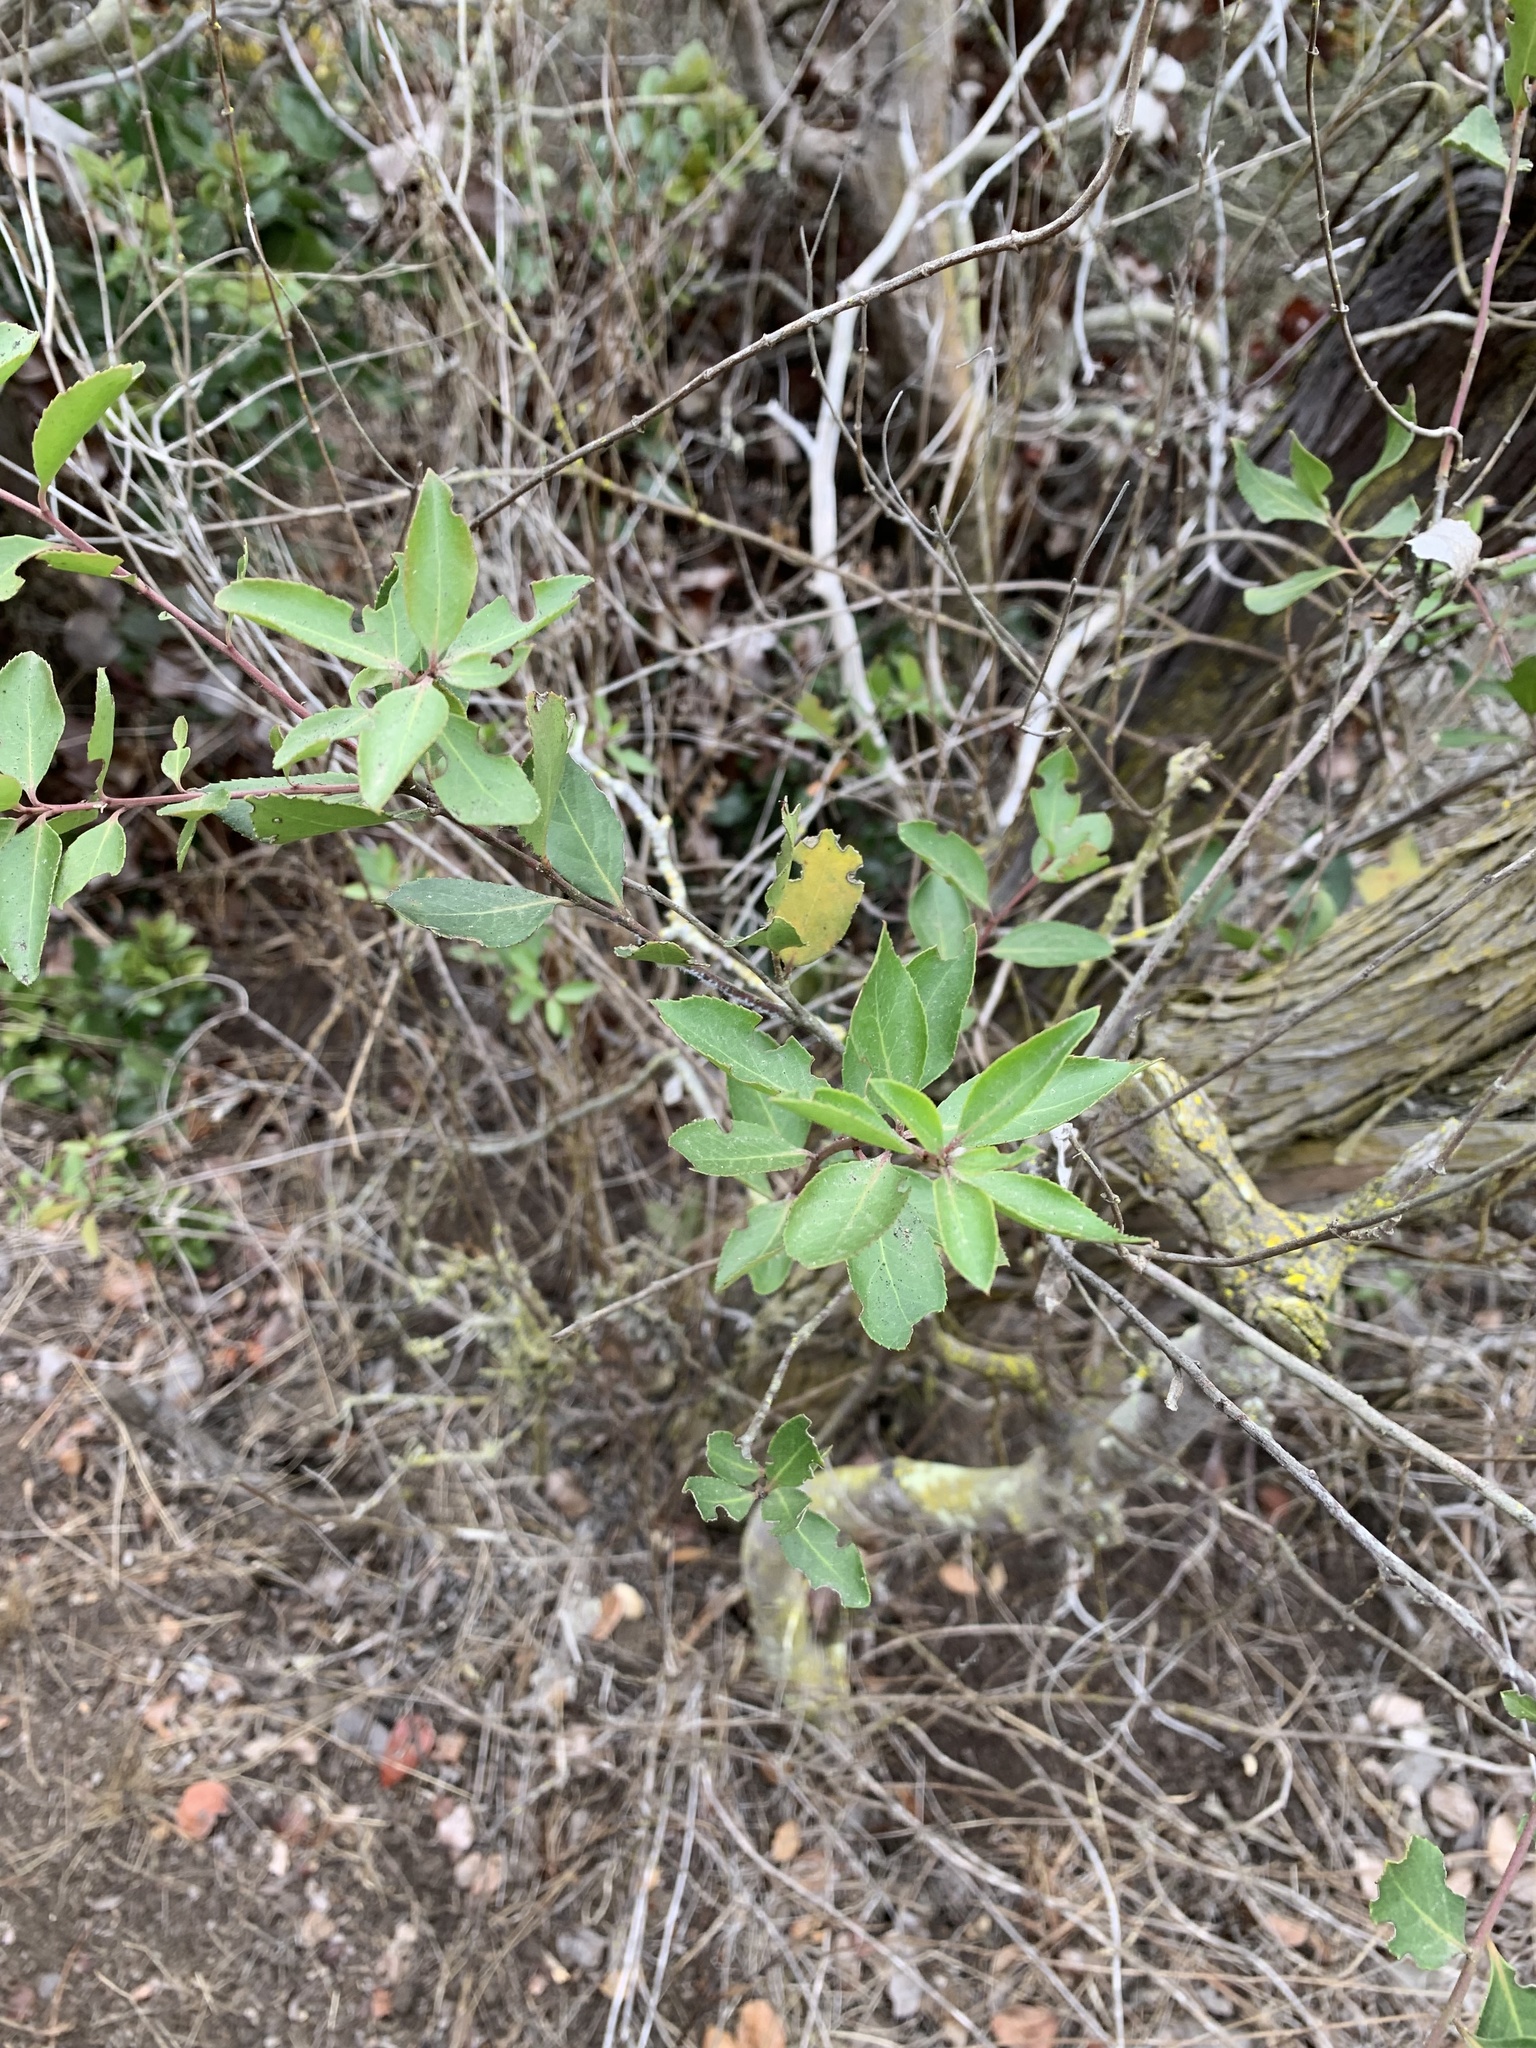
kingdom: Plantae
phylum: Tracheophyta
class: Magnoliopsida
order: Celastrales
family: Celastraceae
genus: Maytenus
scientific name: Maytenus boaria
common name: Mayten
